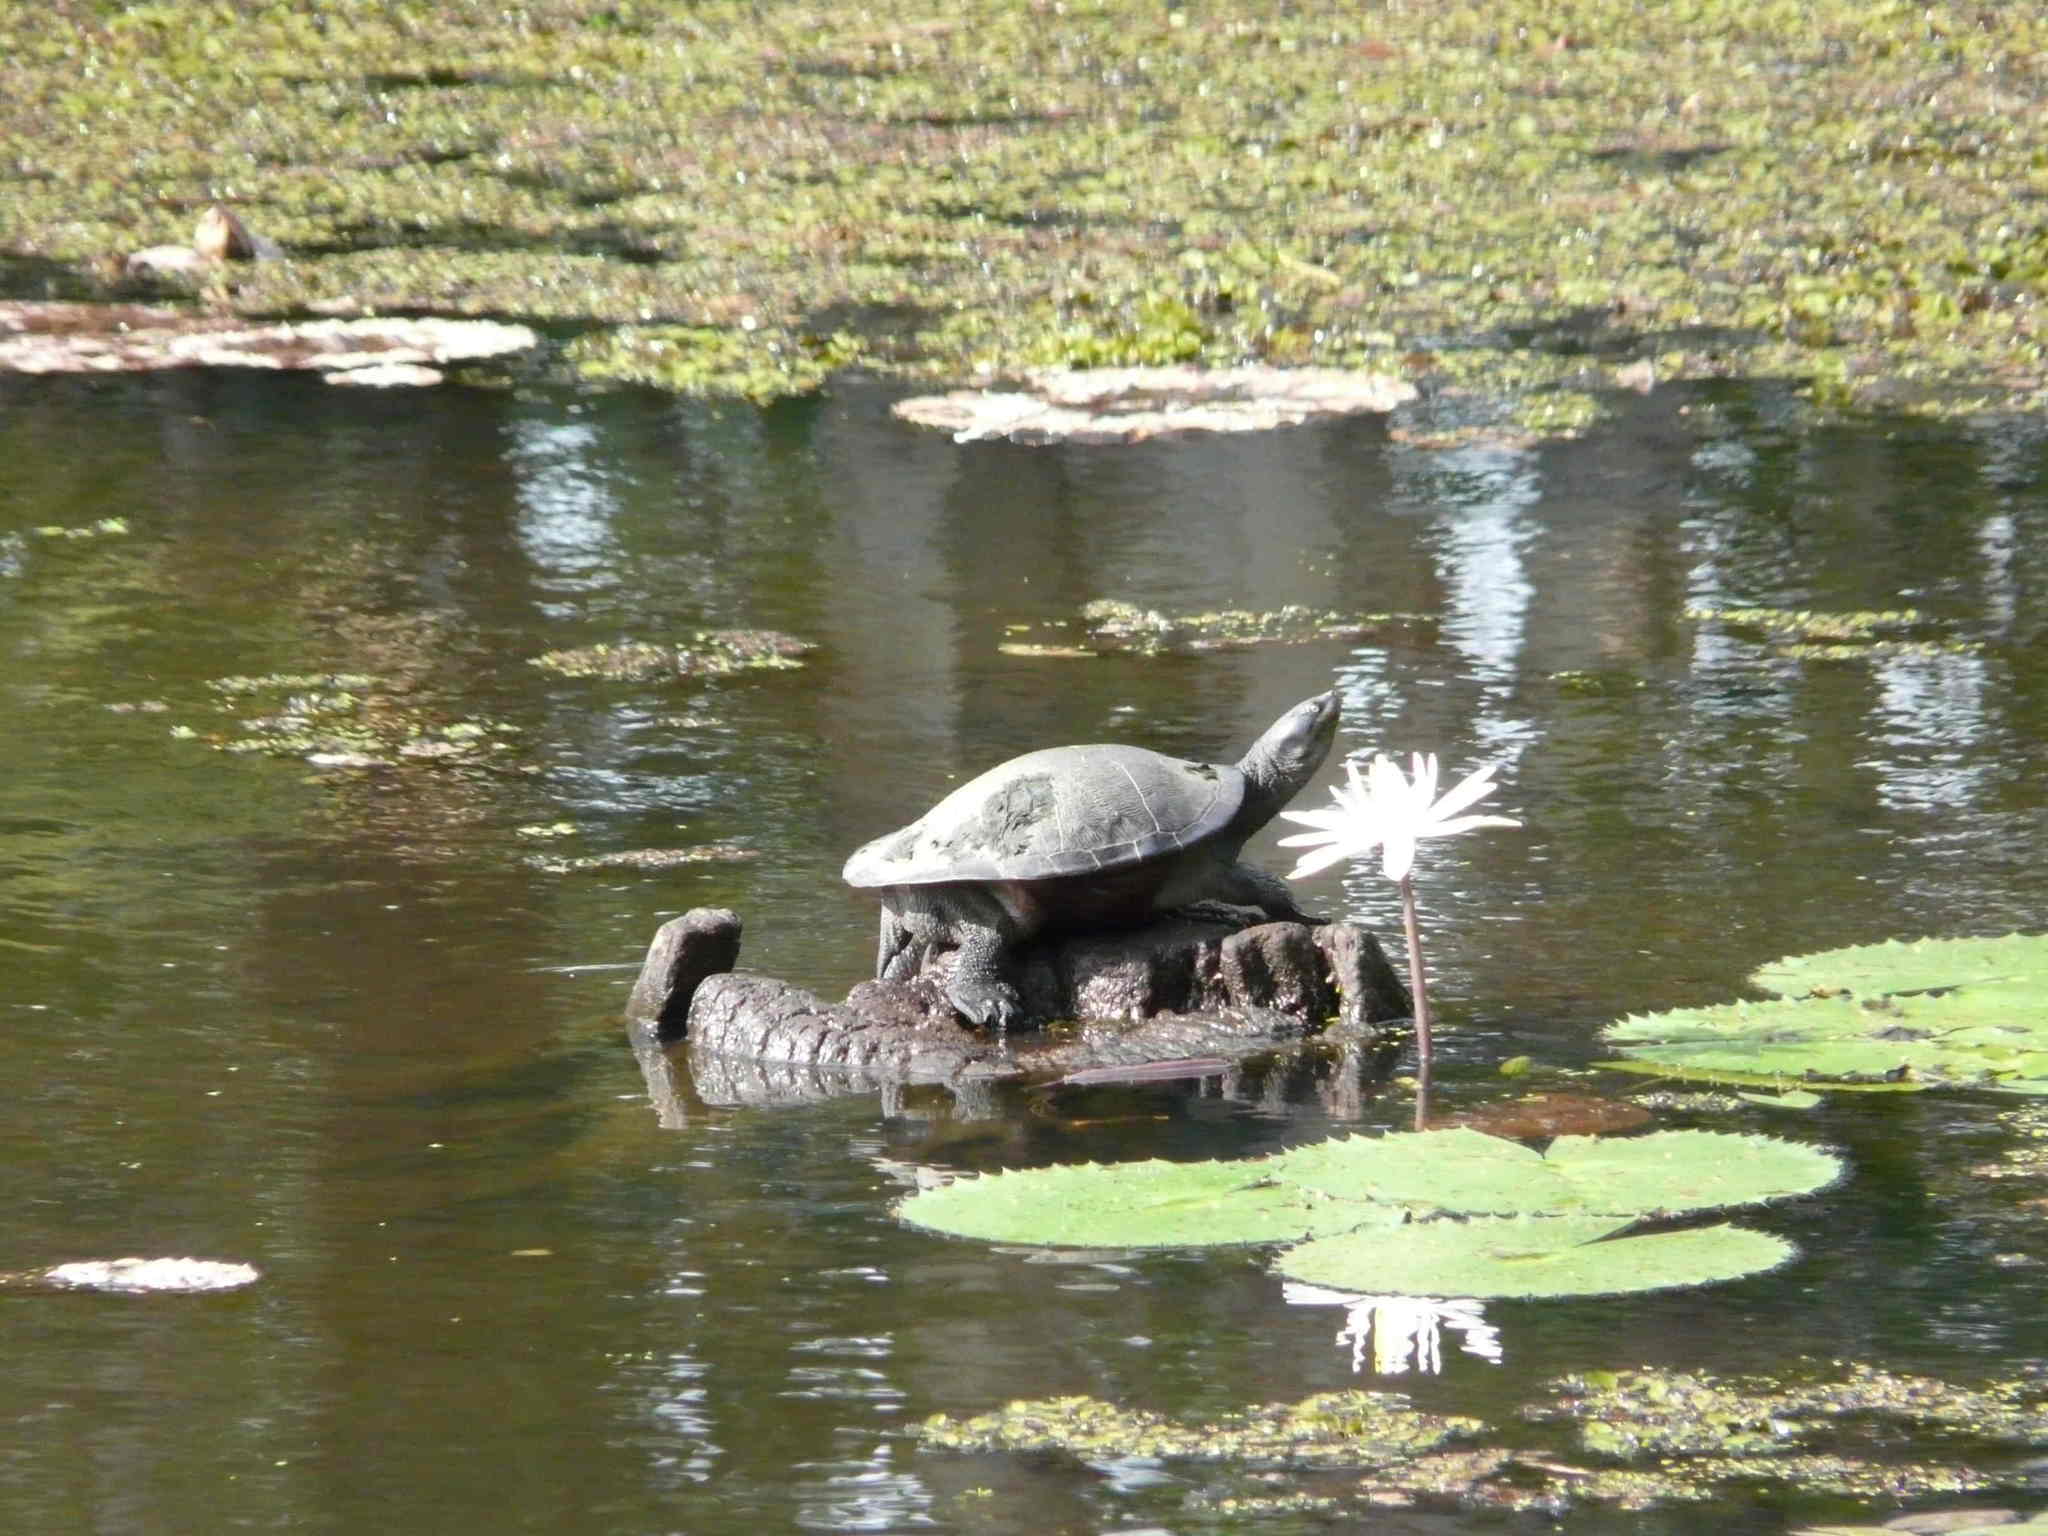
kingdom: Animalia
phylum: Chordata
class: Testudines
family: Chelidae
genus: Emydura
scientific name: Emydura macquarii
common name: Murray river turtle
